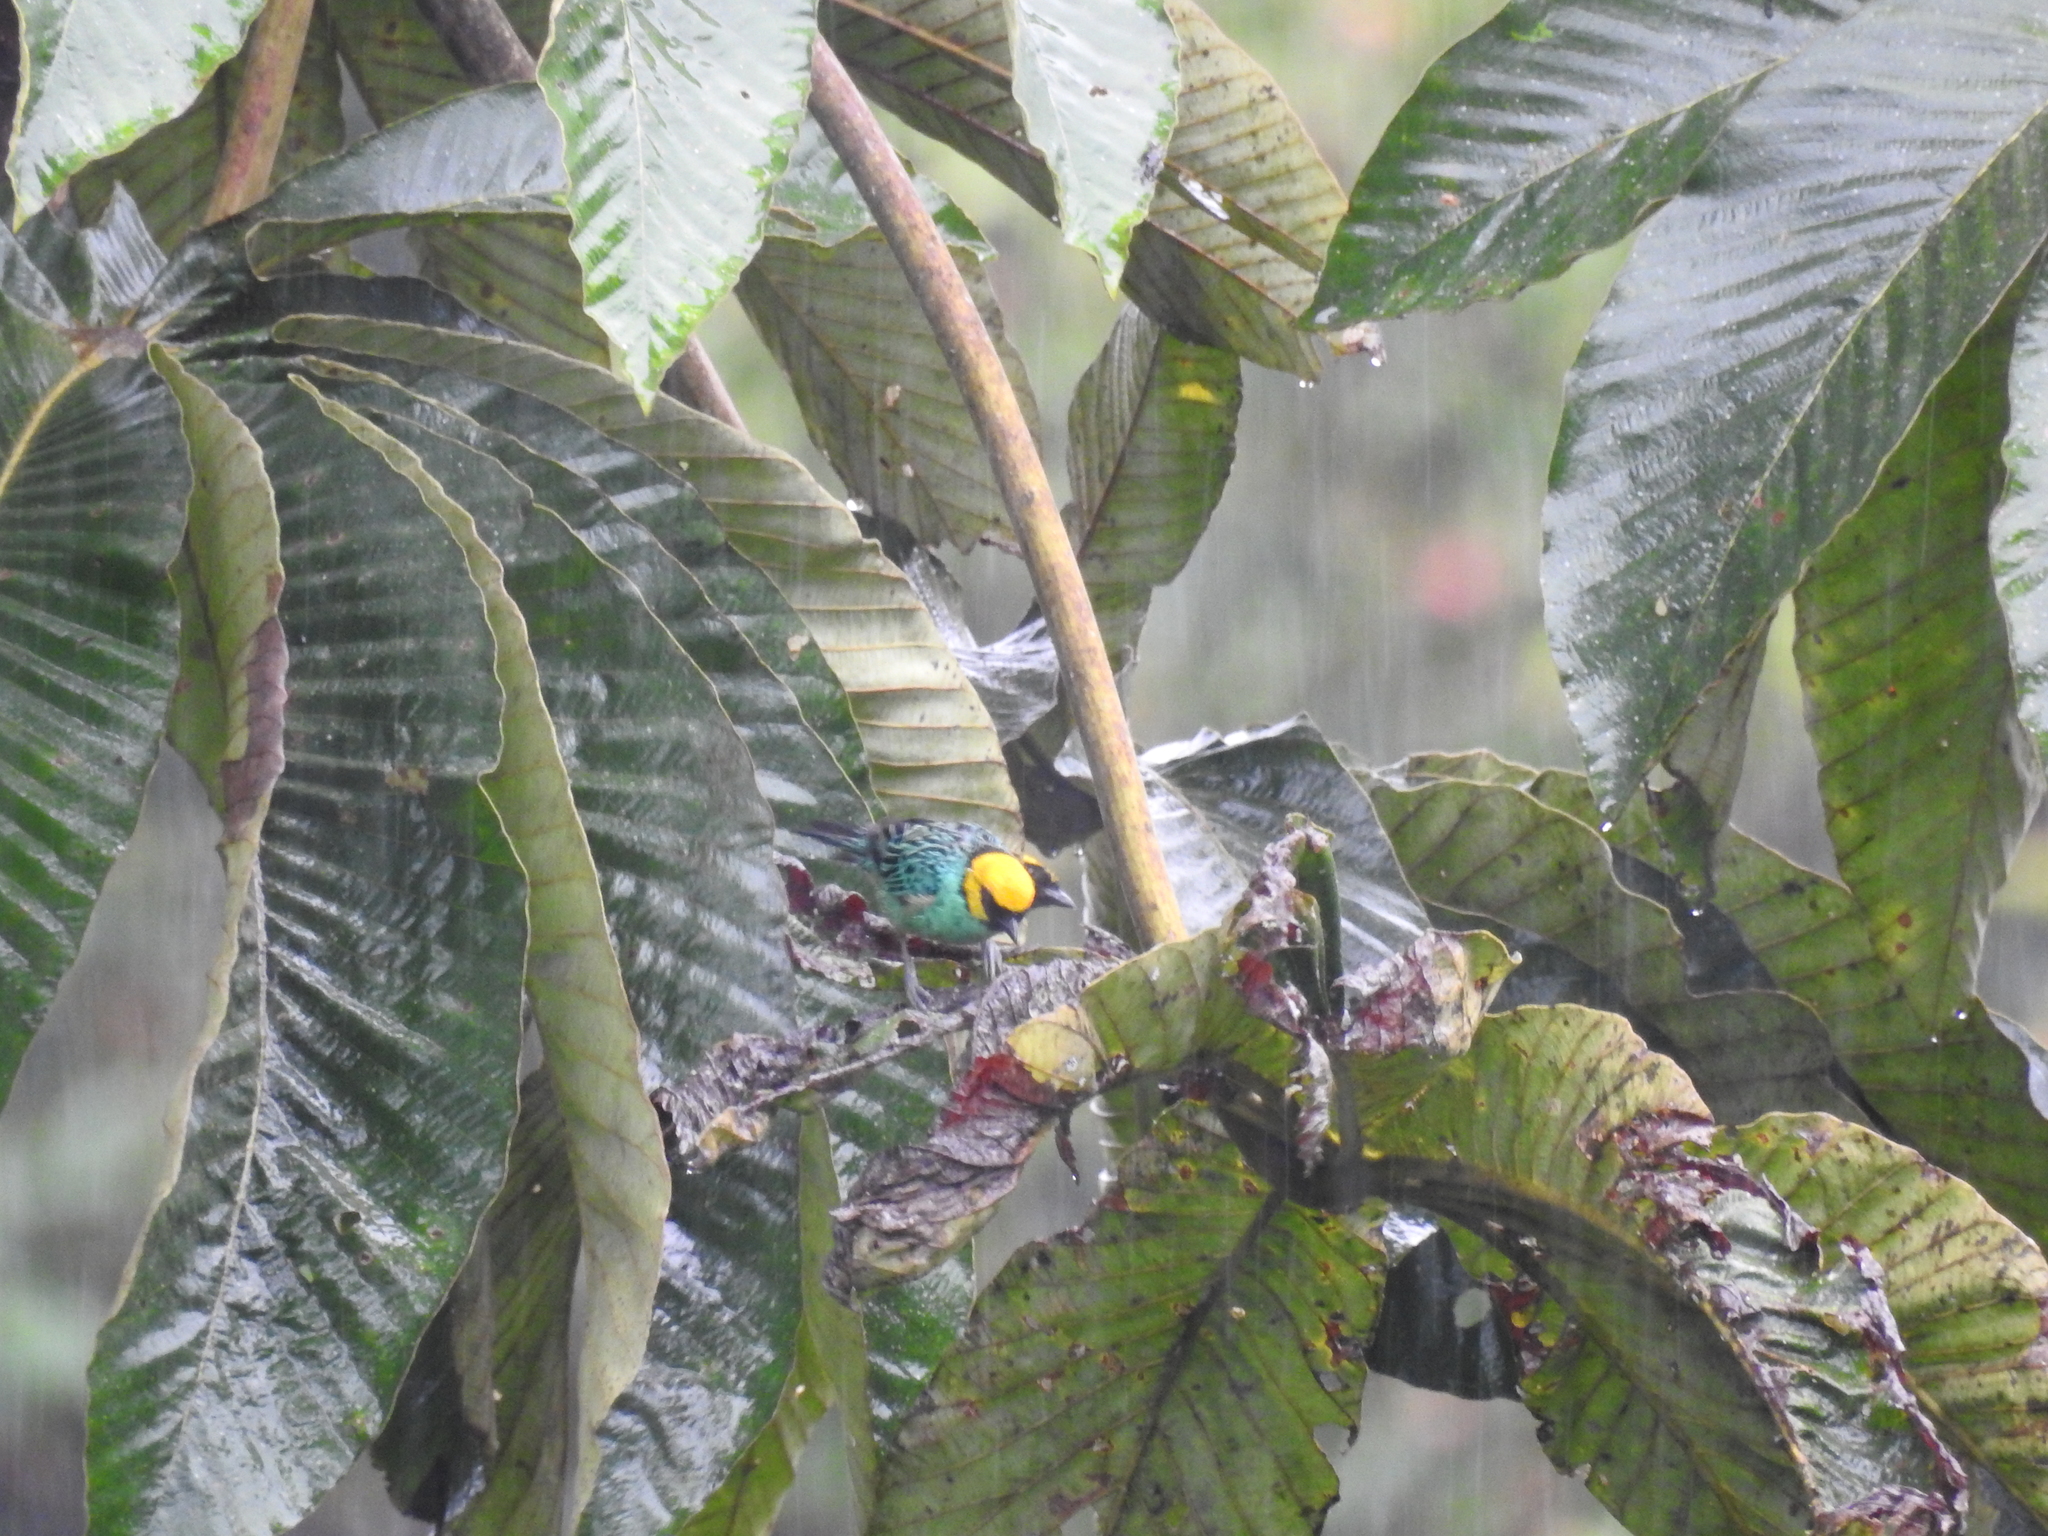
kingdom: Animalia
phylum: Chordata
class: Aves
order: Passeriformes
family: Thraupidae
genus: Tangara
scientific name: Tangara xanthocephala
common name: Saffron-crowned tanager
